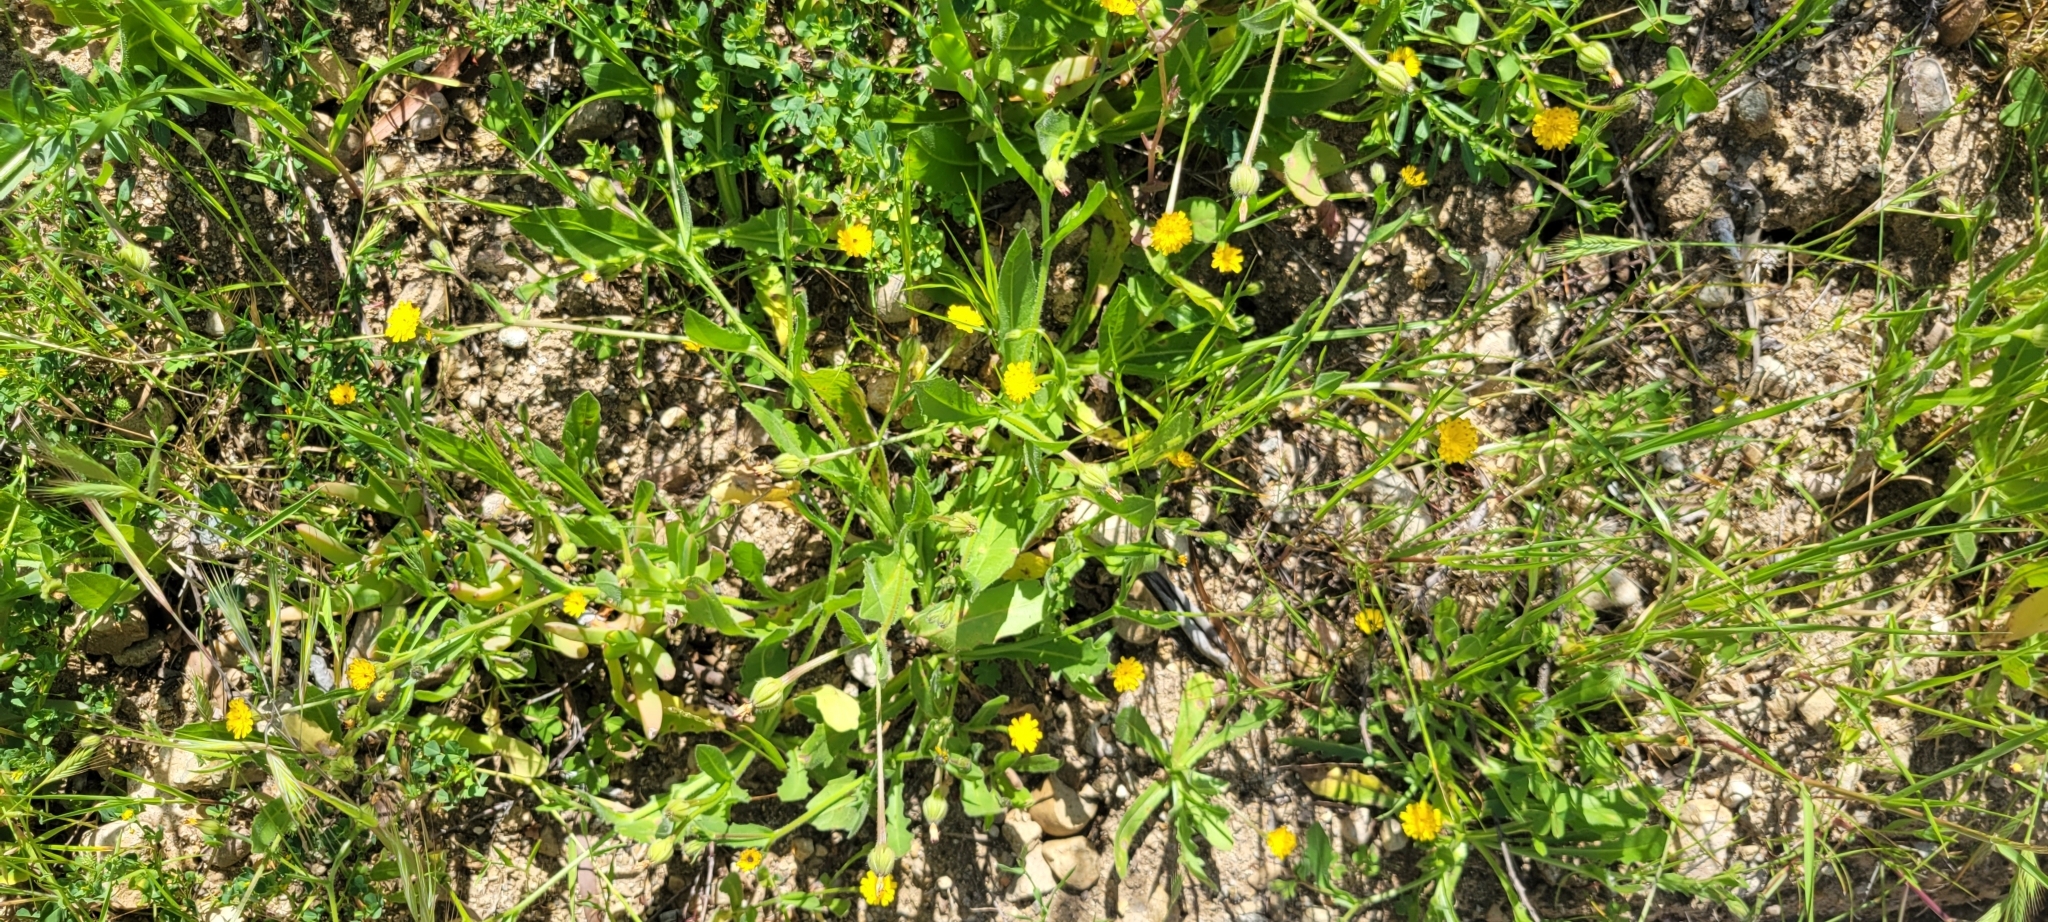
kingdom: Plantae
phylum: Tracheophyta
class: Magnoliopsida
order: Asterales
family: Asteraceae
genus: Hedypnois
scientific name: Hedypnois rhagadioloides
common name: Cretan weed
